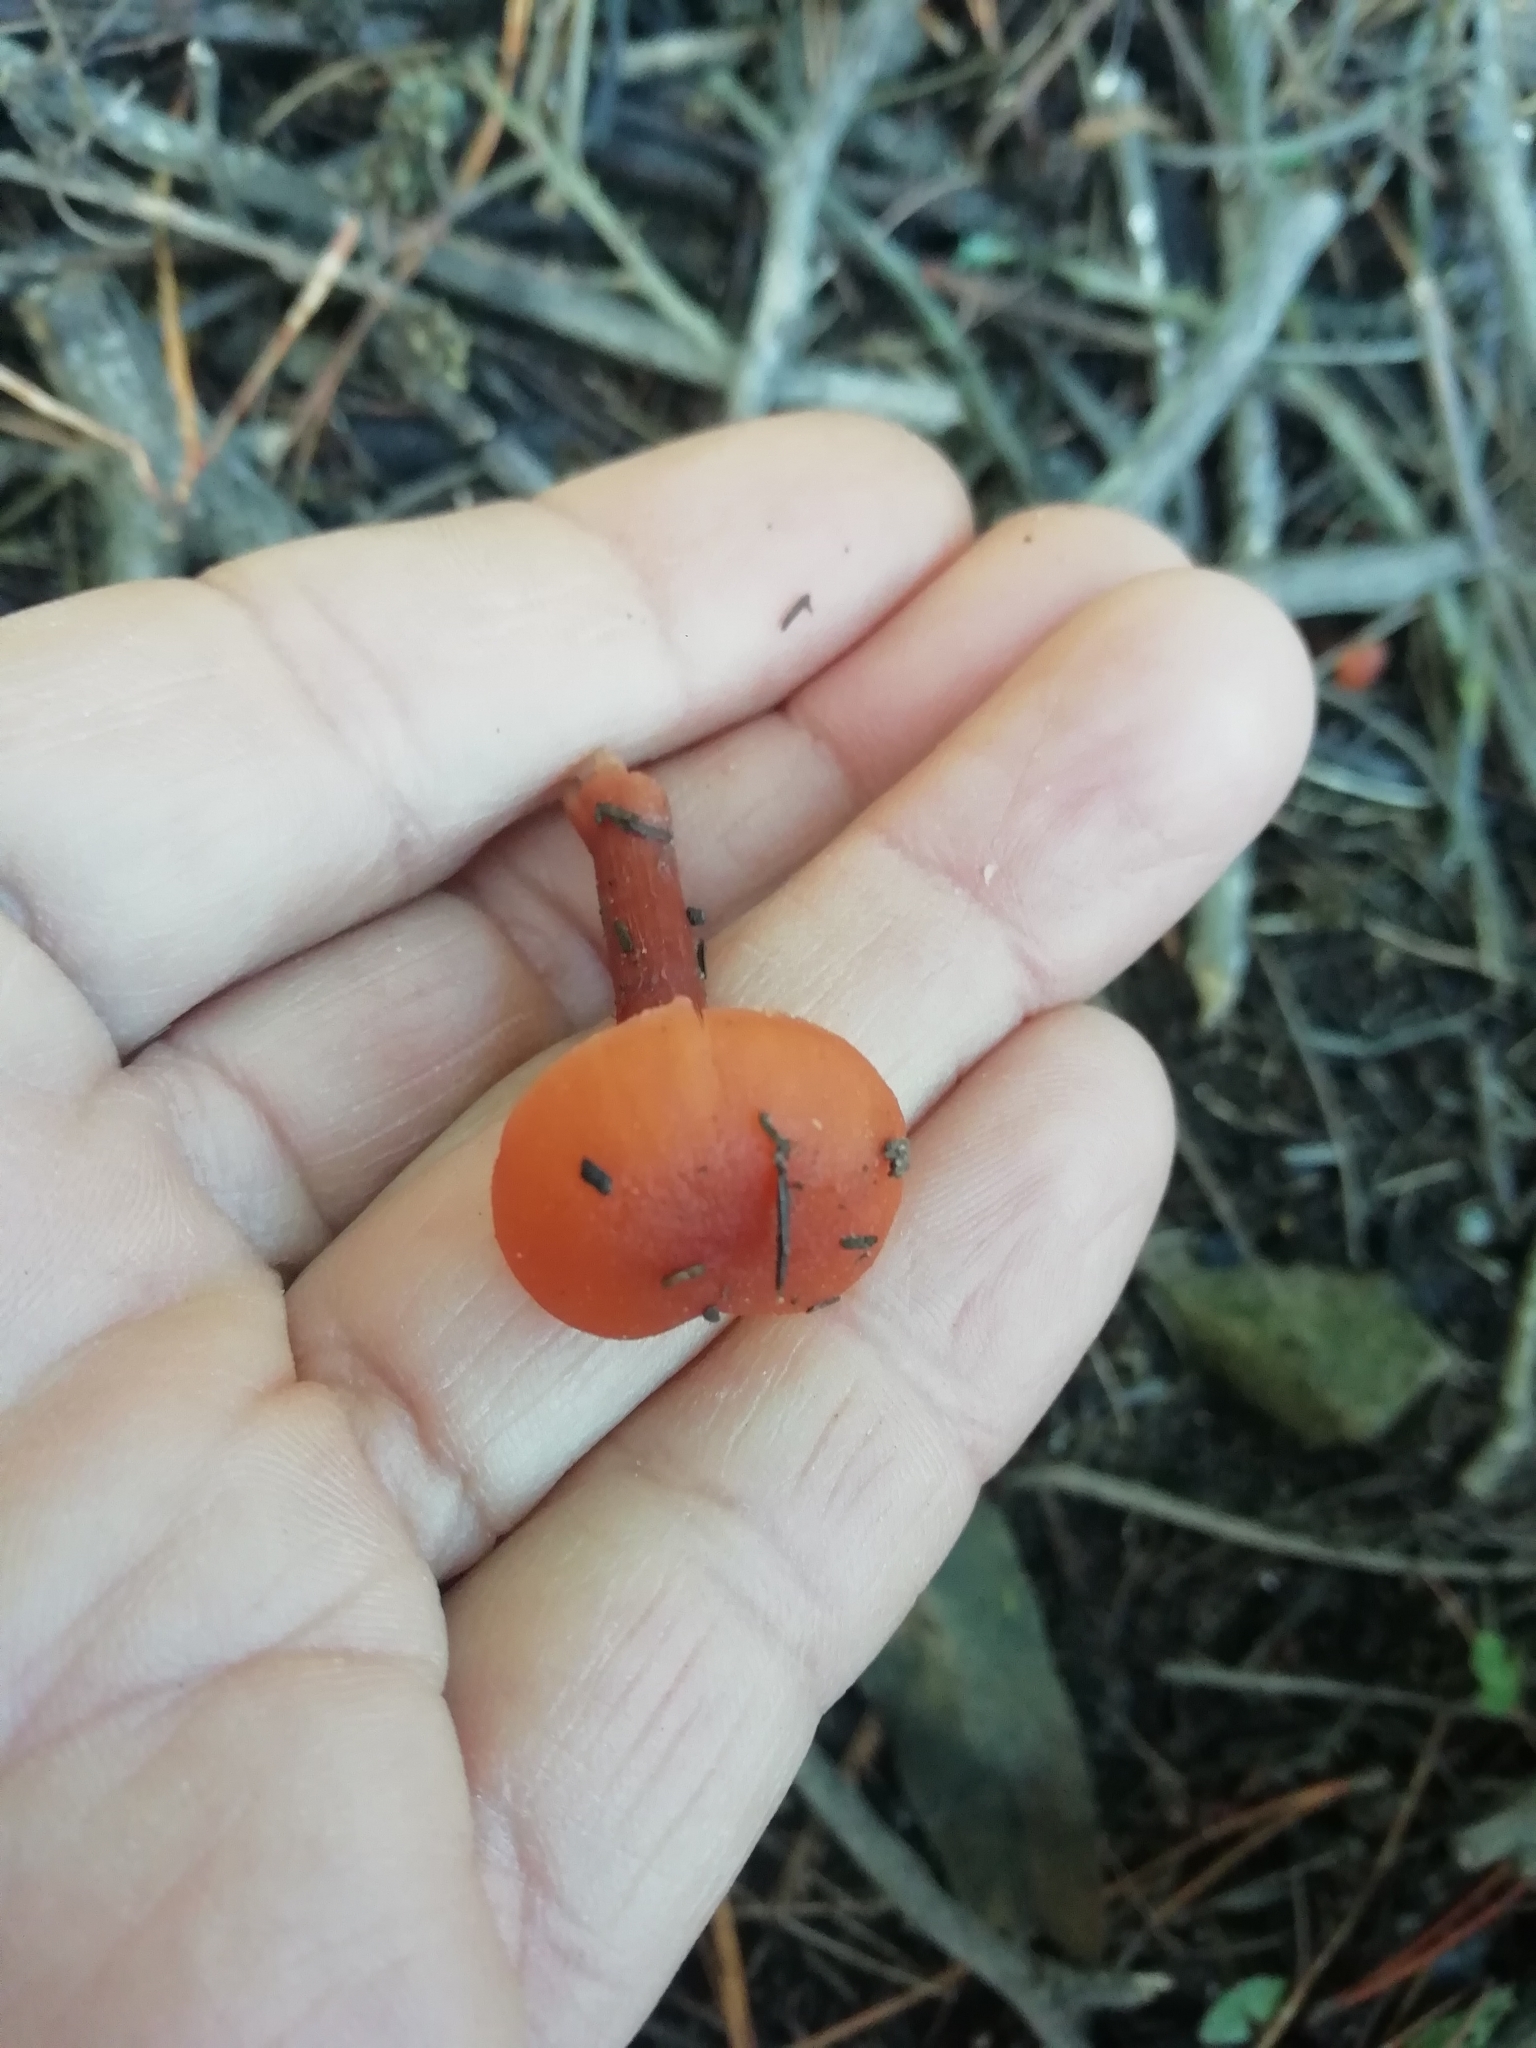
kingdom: Fungi
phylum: Basidiomycota
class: Agaricomycetes
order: Agaricales
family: Hydnangiaceae
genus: Laccaria
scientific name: Laccaria laccata
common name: Deceiver
